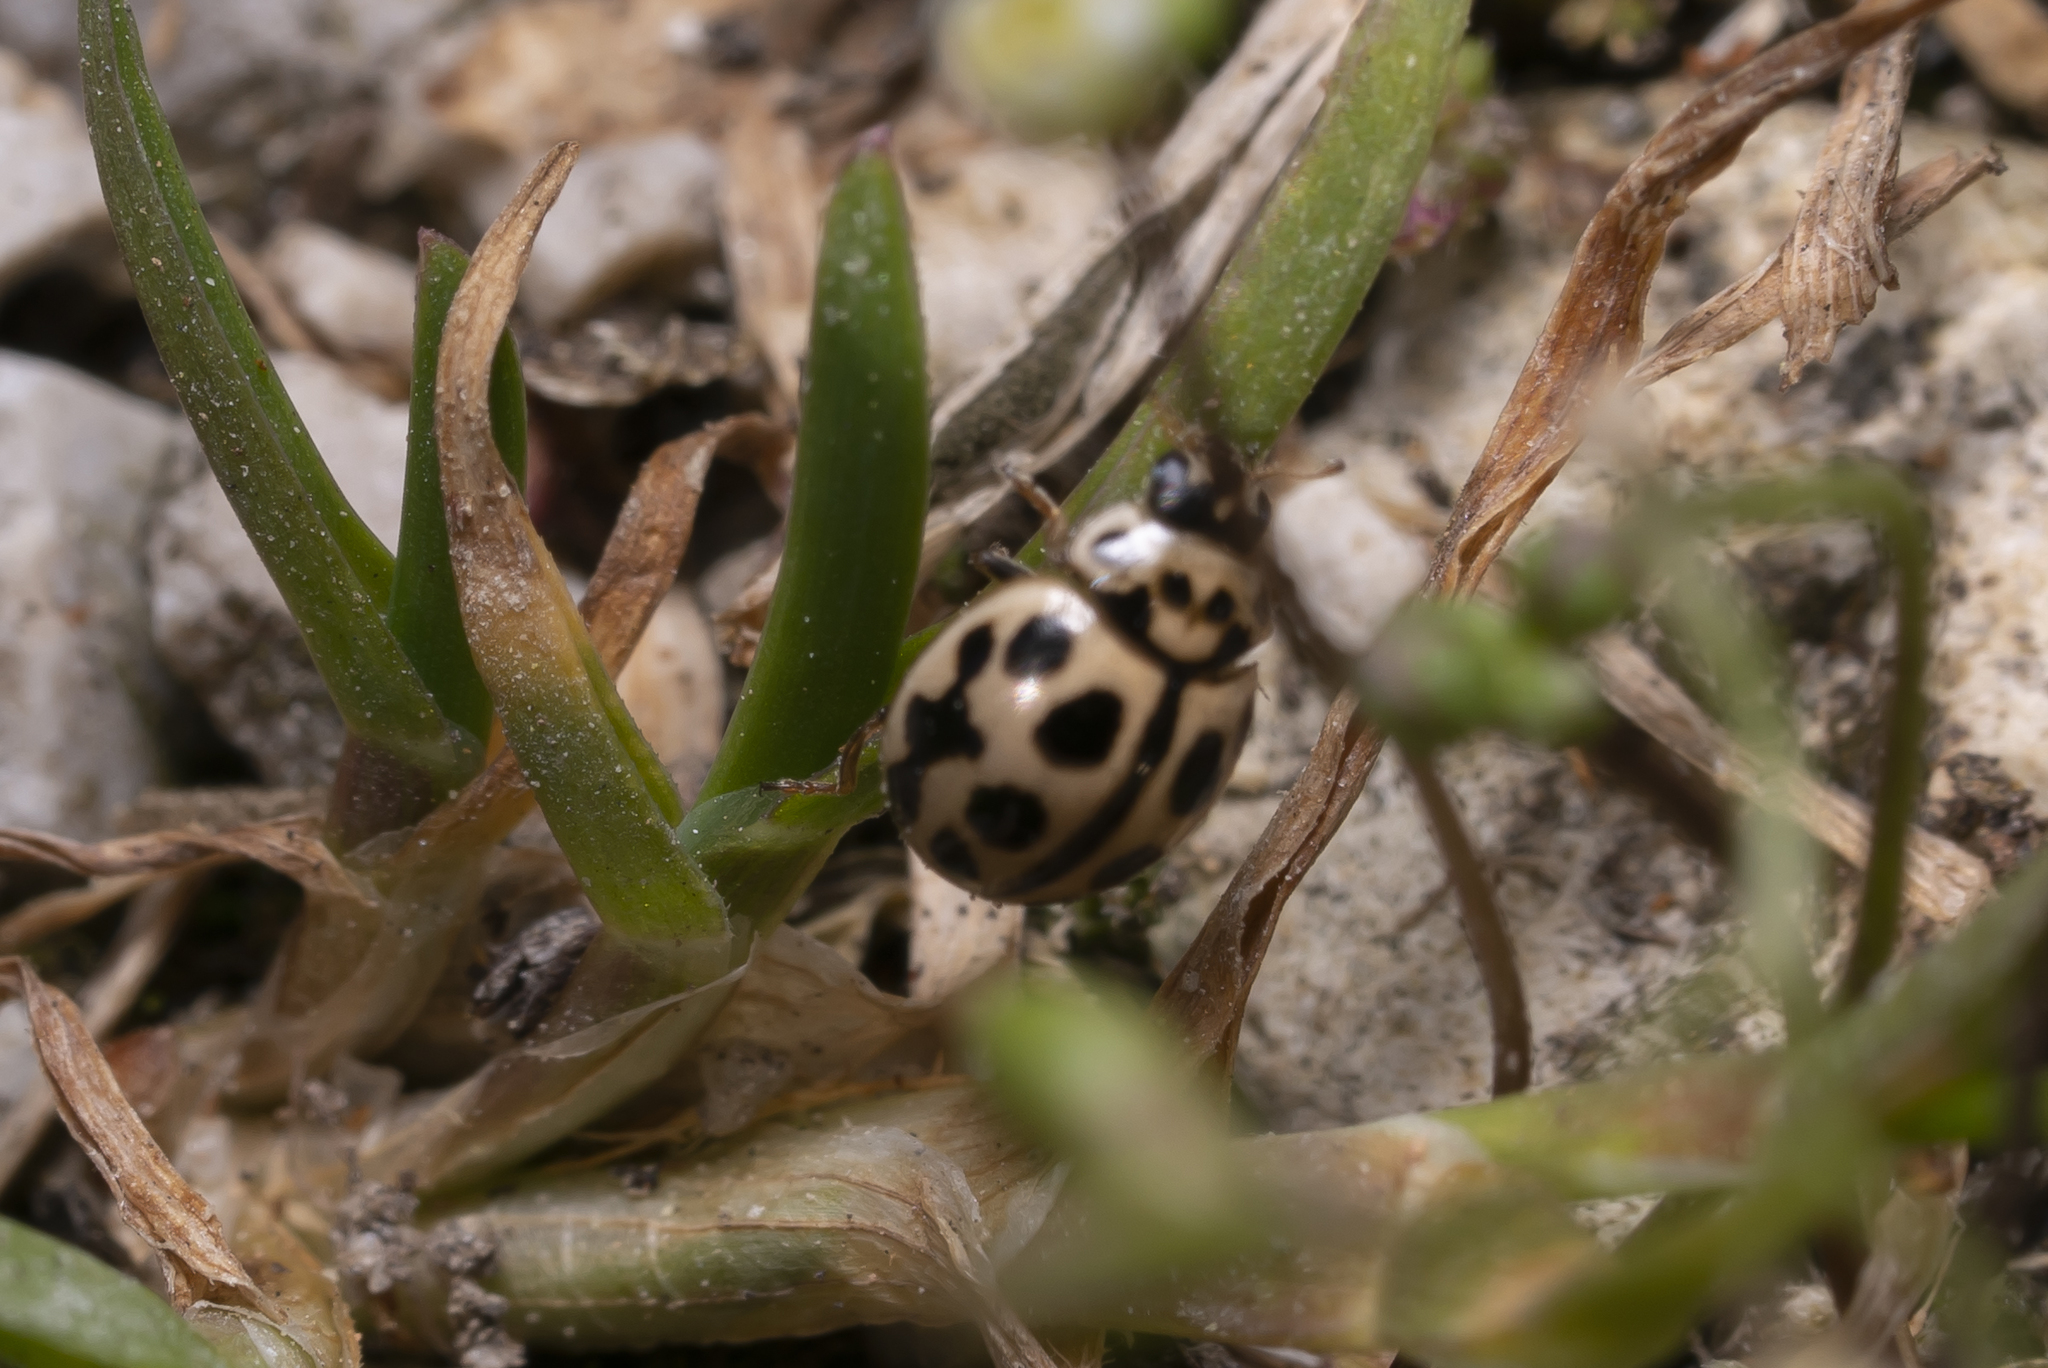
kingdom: Animalia
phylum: Arthropoda
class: Insecta
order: Coleoptera
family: Coccinellidae
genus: Tytthaspis
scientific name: Tytthaspis sedecimpunctata
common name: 16-spot ladybird
